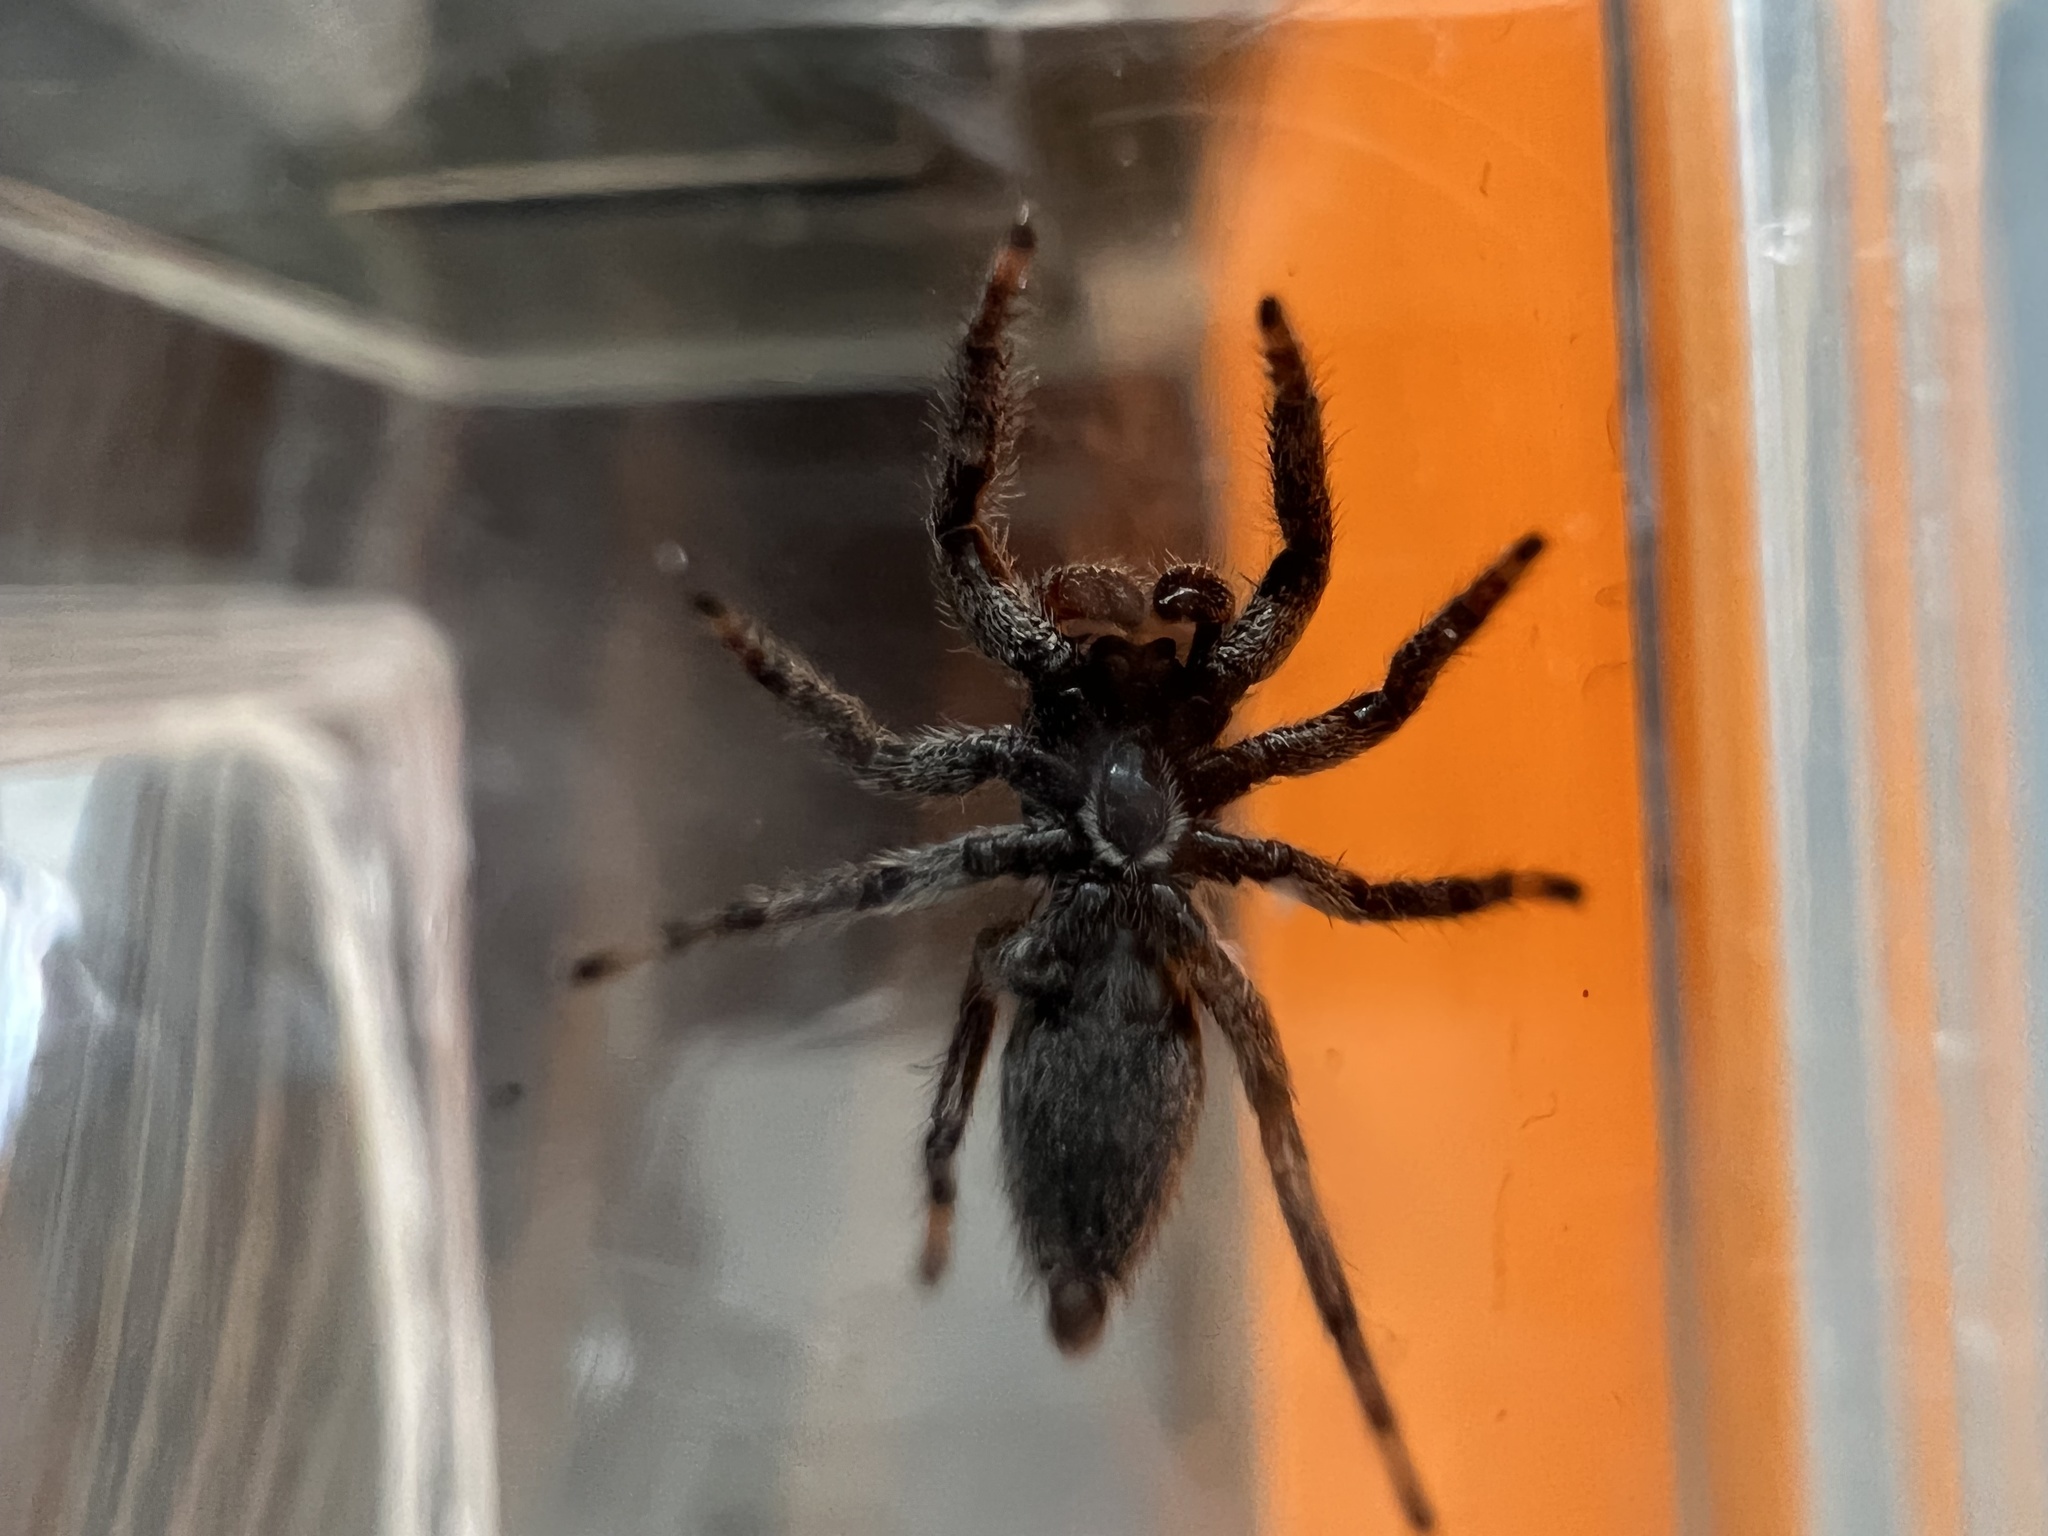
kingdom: Animalia
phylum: Arthropoda
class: Arachnida
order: Araneae
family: Salticidae
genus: Platycryptus
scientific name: Platycryptus californicus
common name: Jumping spiders
